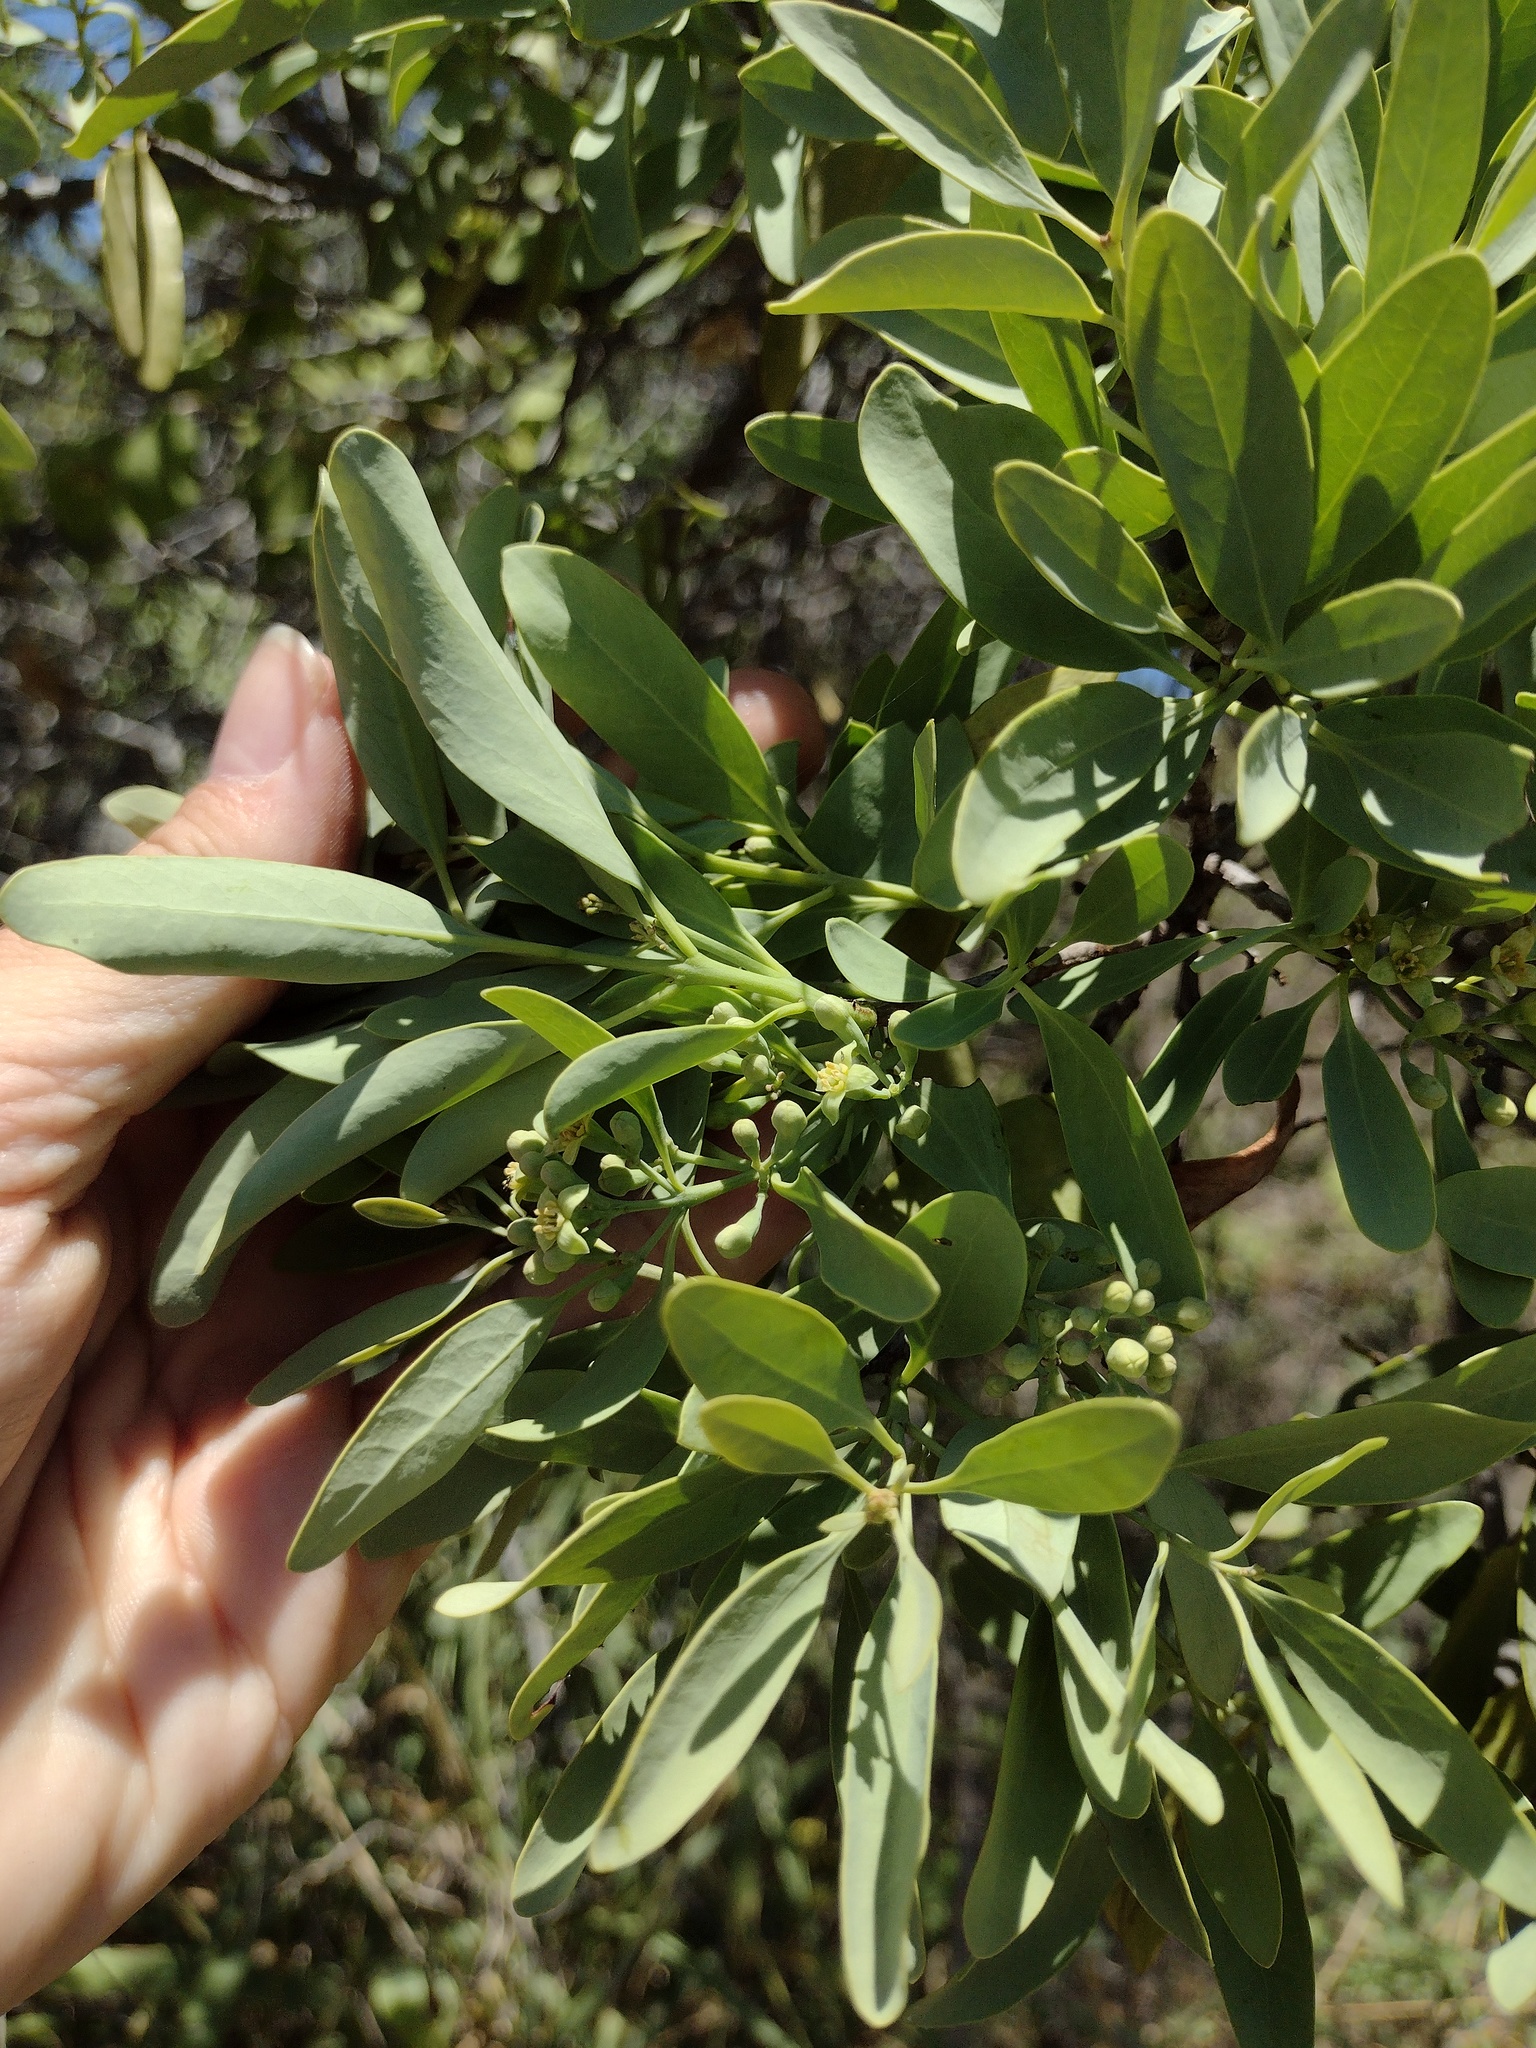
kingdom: Plantae
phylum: Tracheophyta
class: Magnoliopsida
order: Santalales
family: Santalaceae
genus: Santalum
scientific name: Santalum ellipticum
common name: Coast sandalwood
